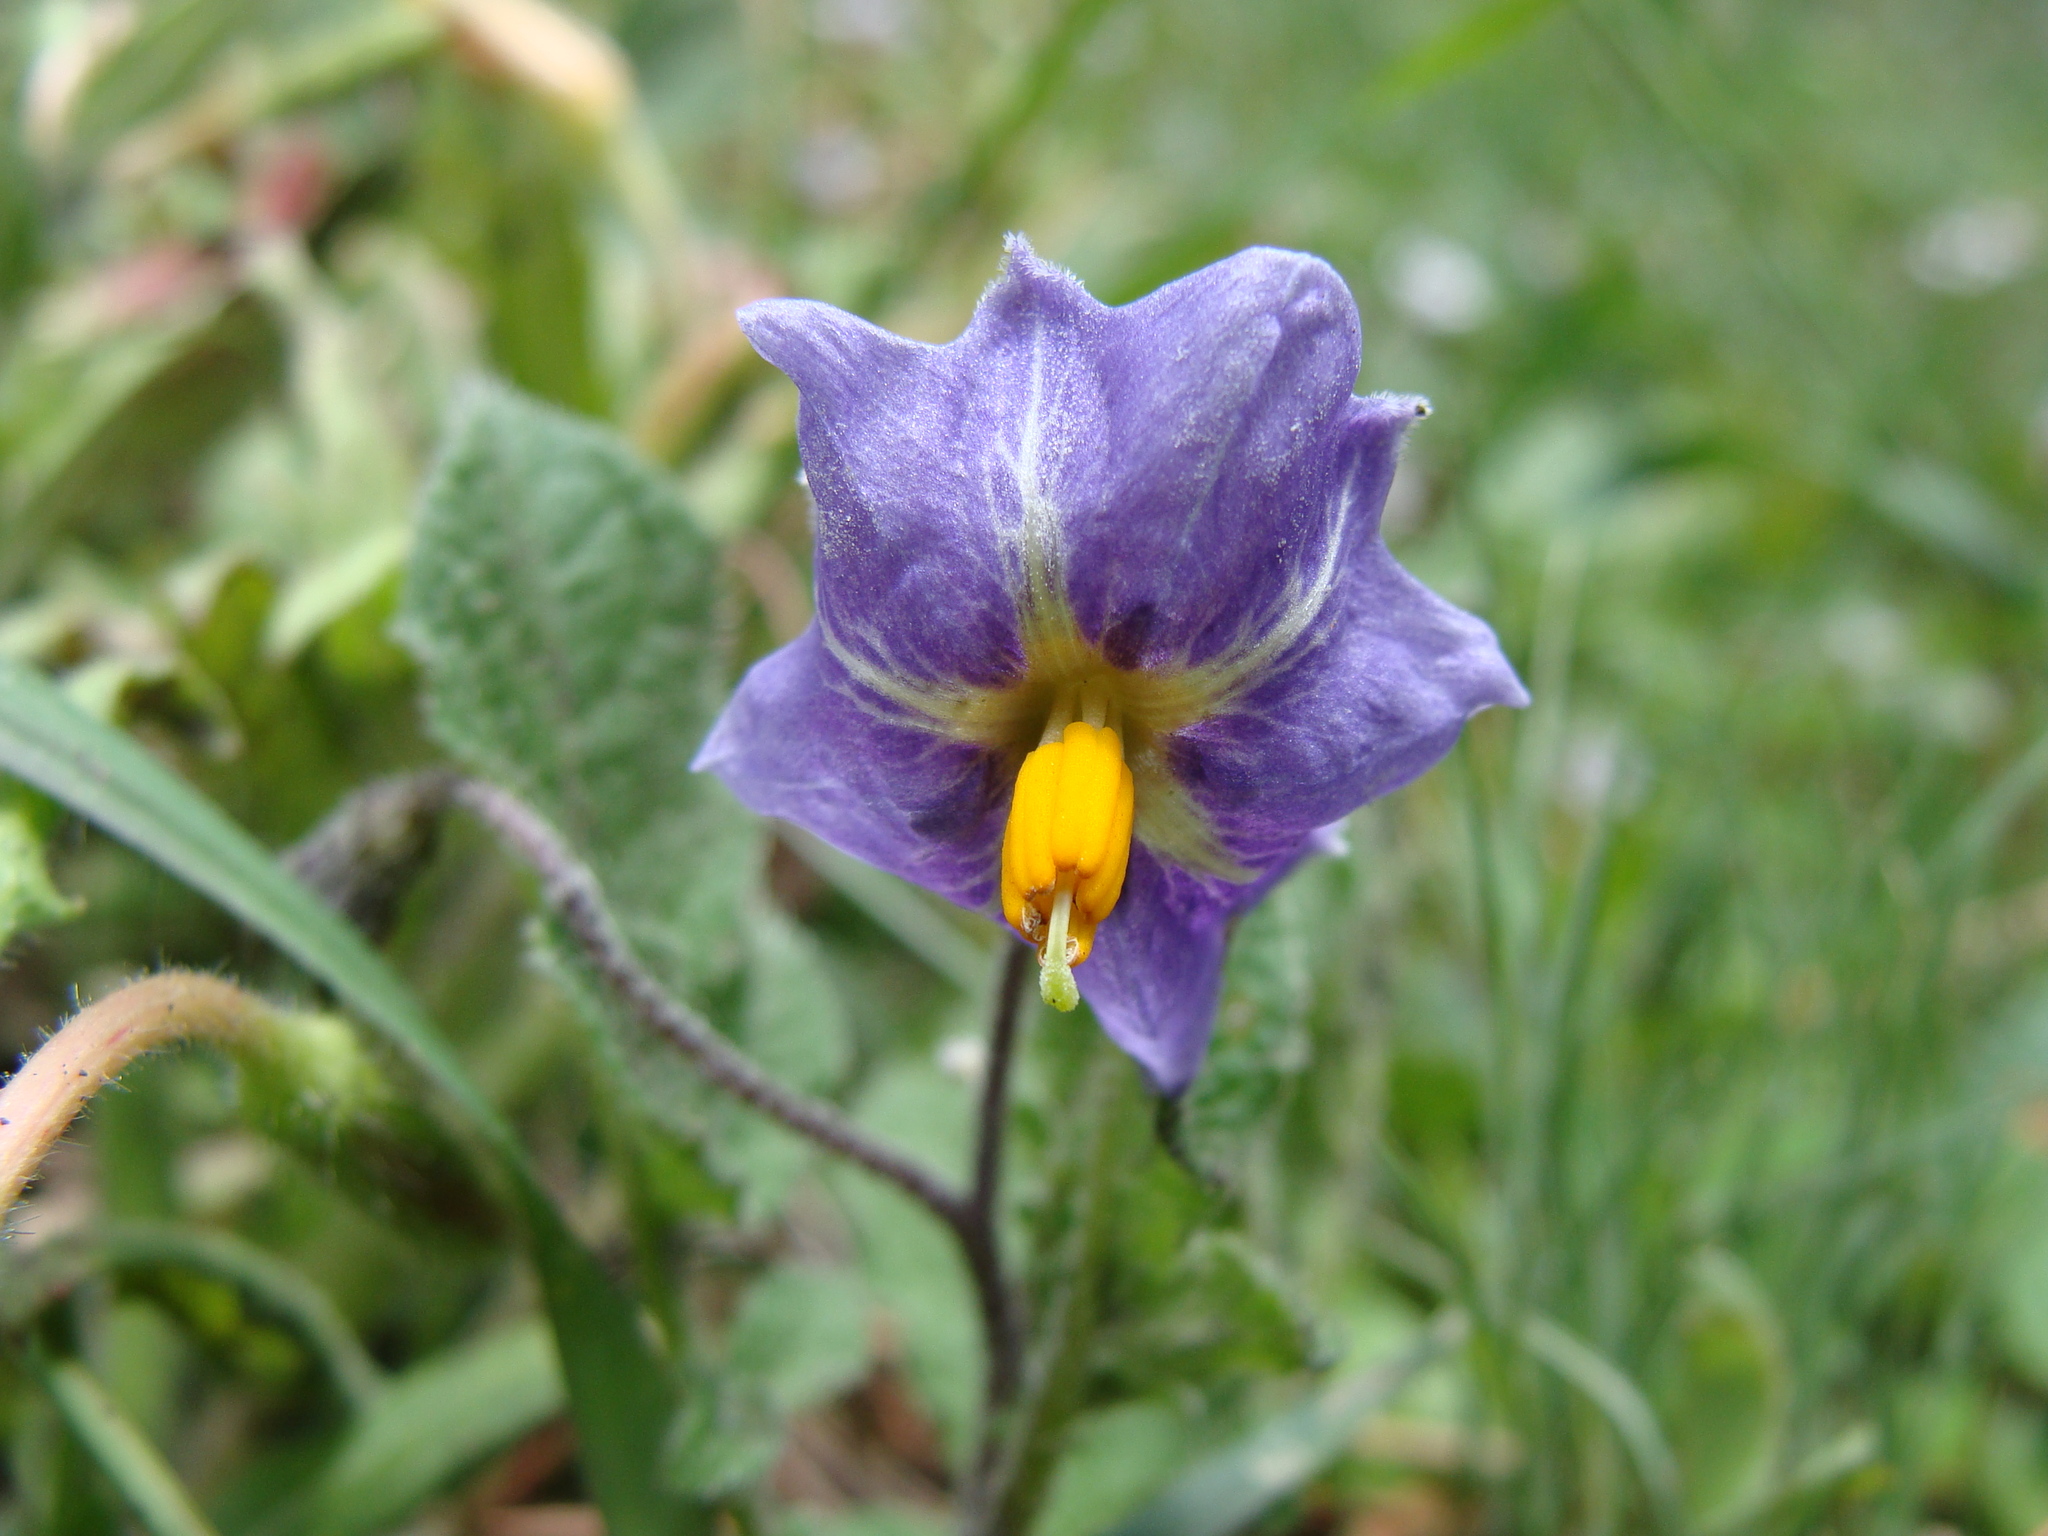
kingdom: Plantae
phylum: Tracheophyta
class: Magnoliopsida
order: Solanales
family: Solanaceae
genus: Solanum
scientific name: Solanum demissum
